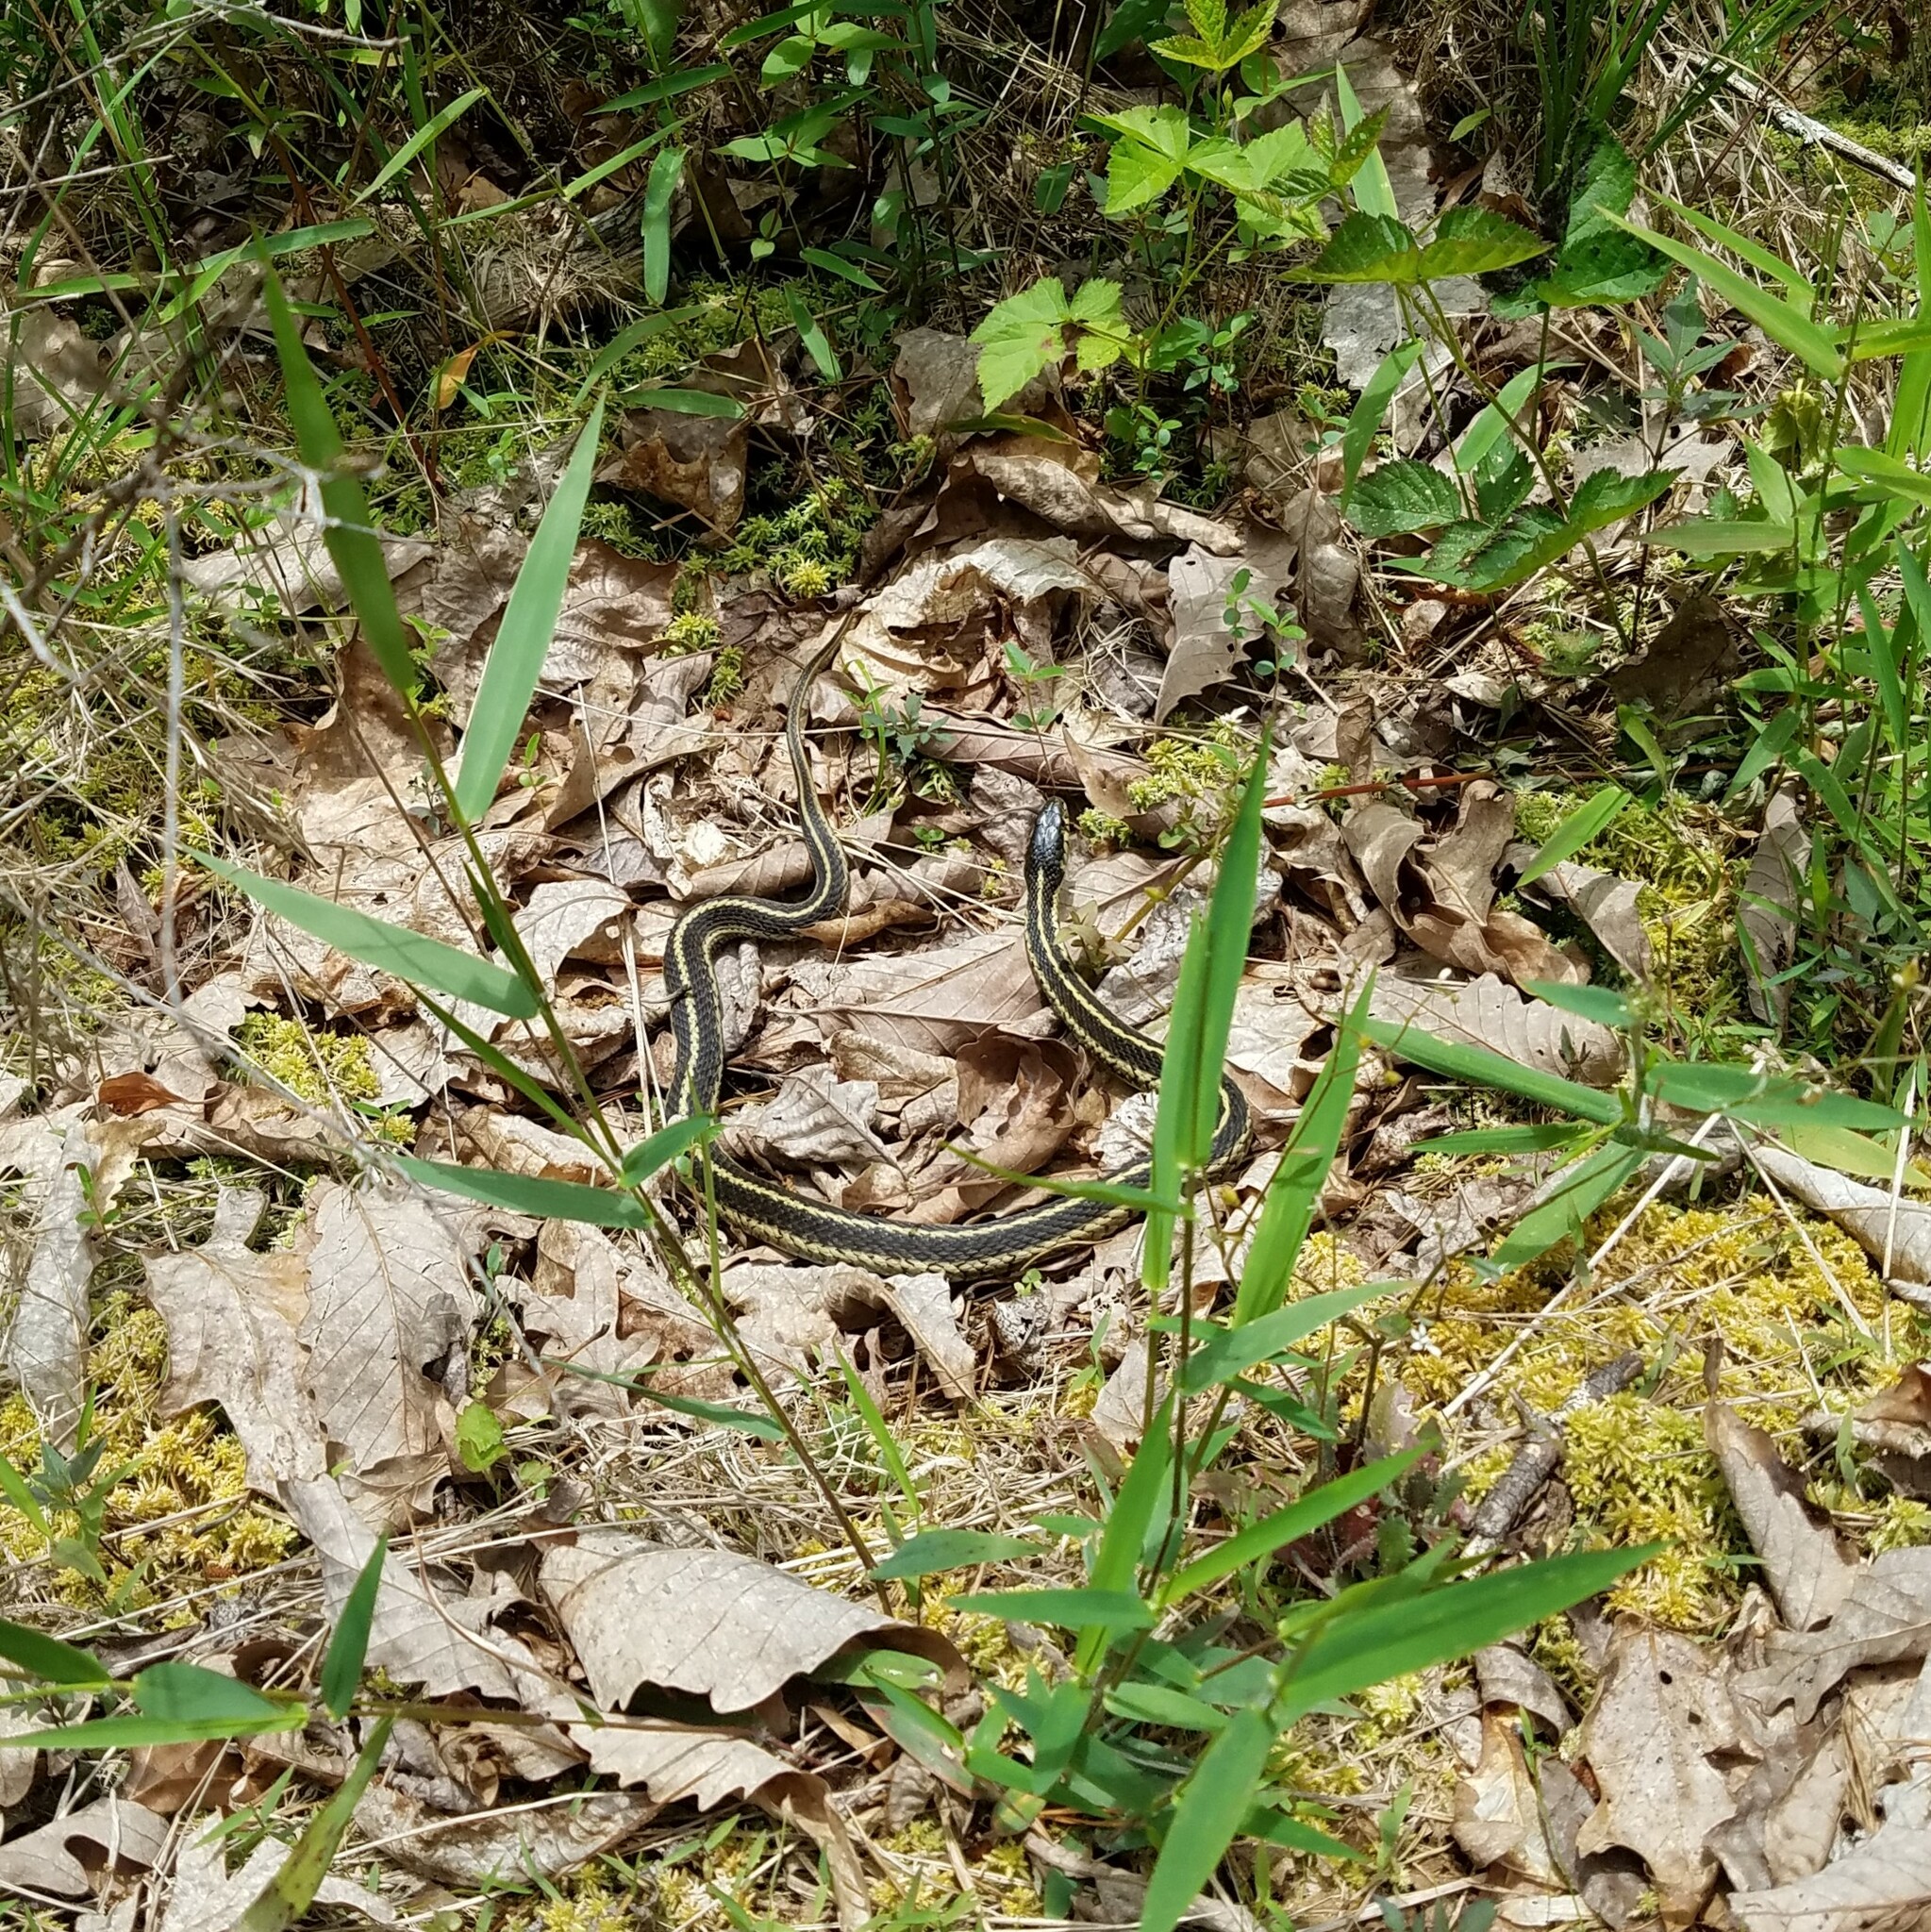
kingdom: Animalia
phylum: Chordata
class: Squamata
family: Colubridae
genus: Thamnophis
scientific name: Thamnophis sirtalis
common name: Common garter snake
